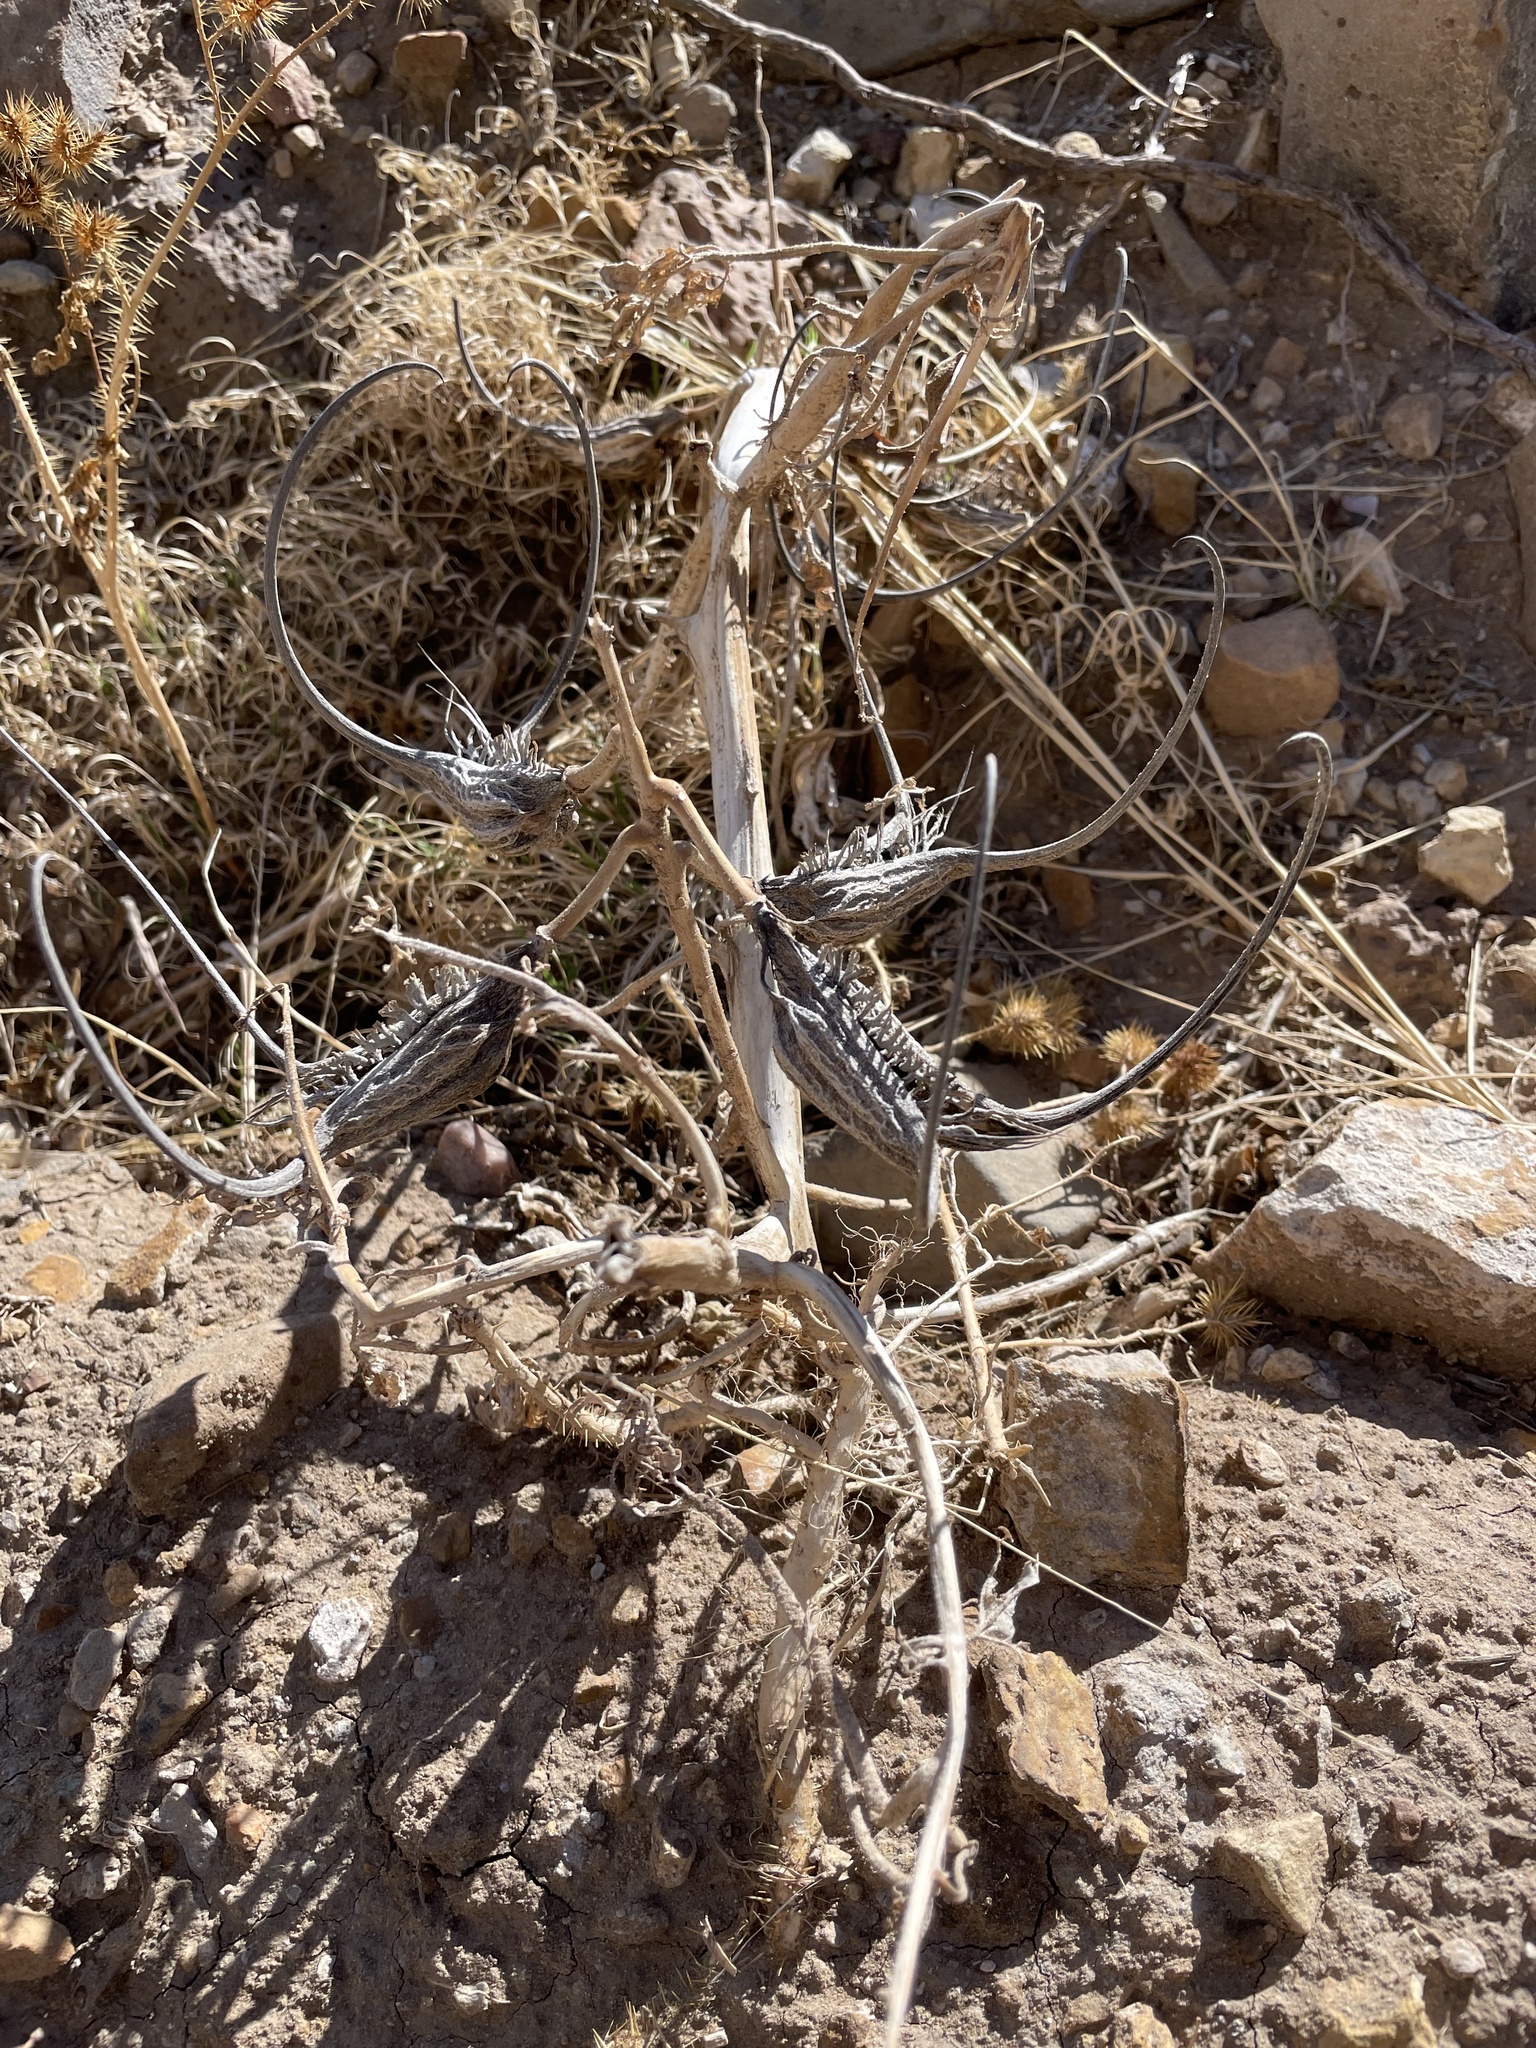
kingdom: Plantae
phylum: Tracheophyta
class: Magnoliopsida
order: Lamiales
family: Martyniaceae
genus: Proboscidea
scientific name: Proboscidea louisianica
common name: Elephant tusks
